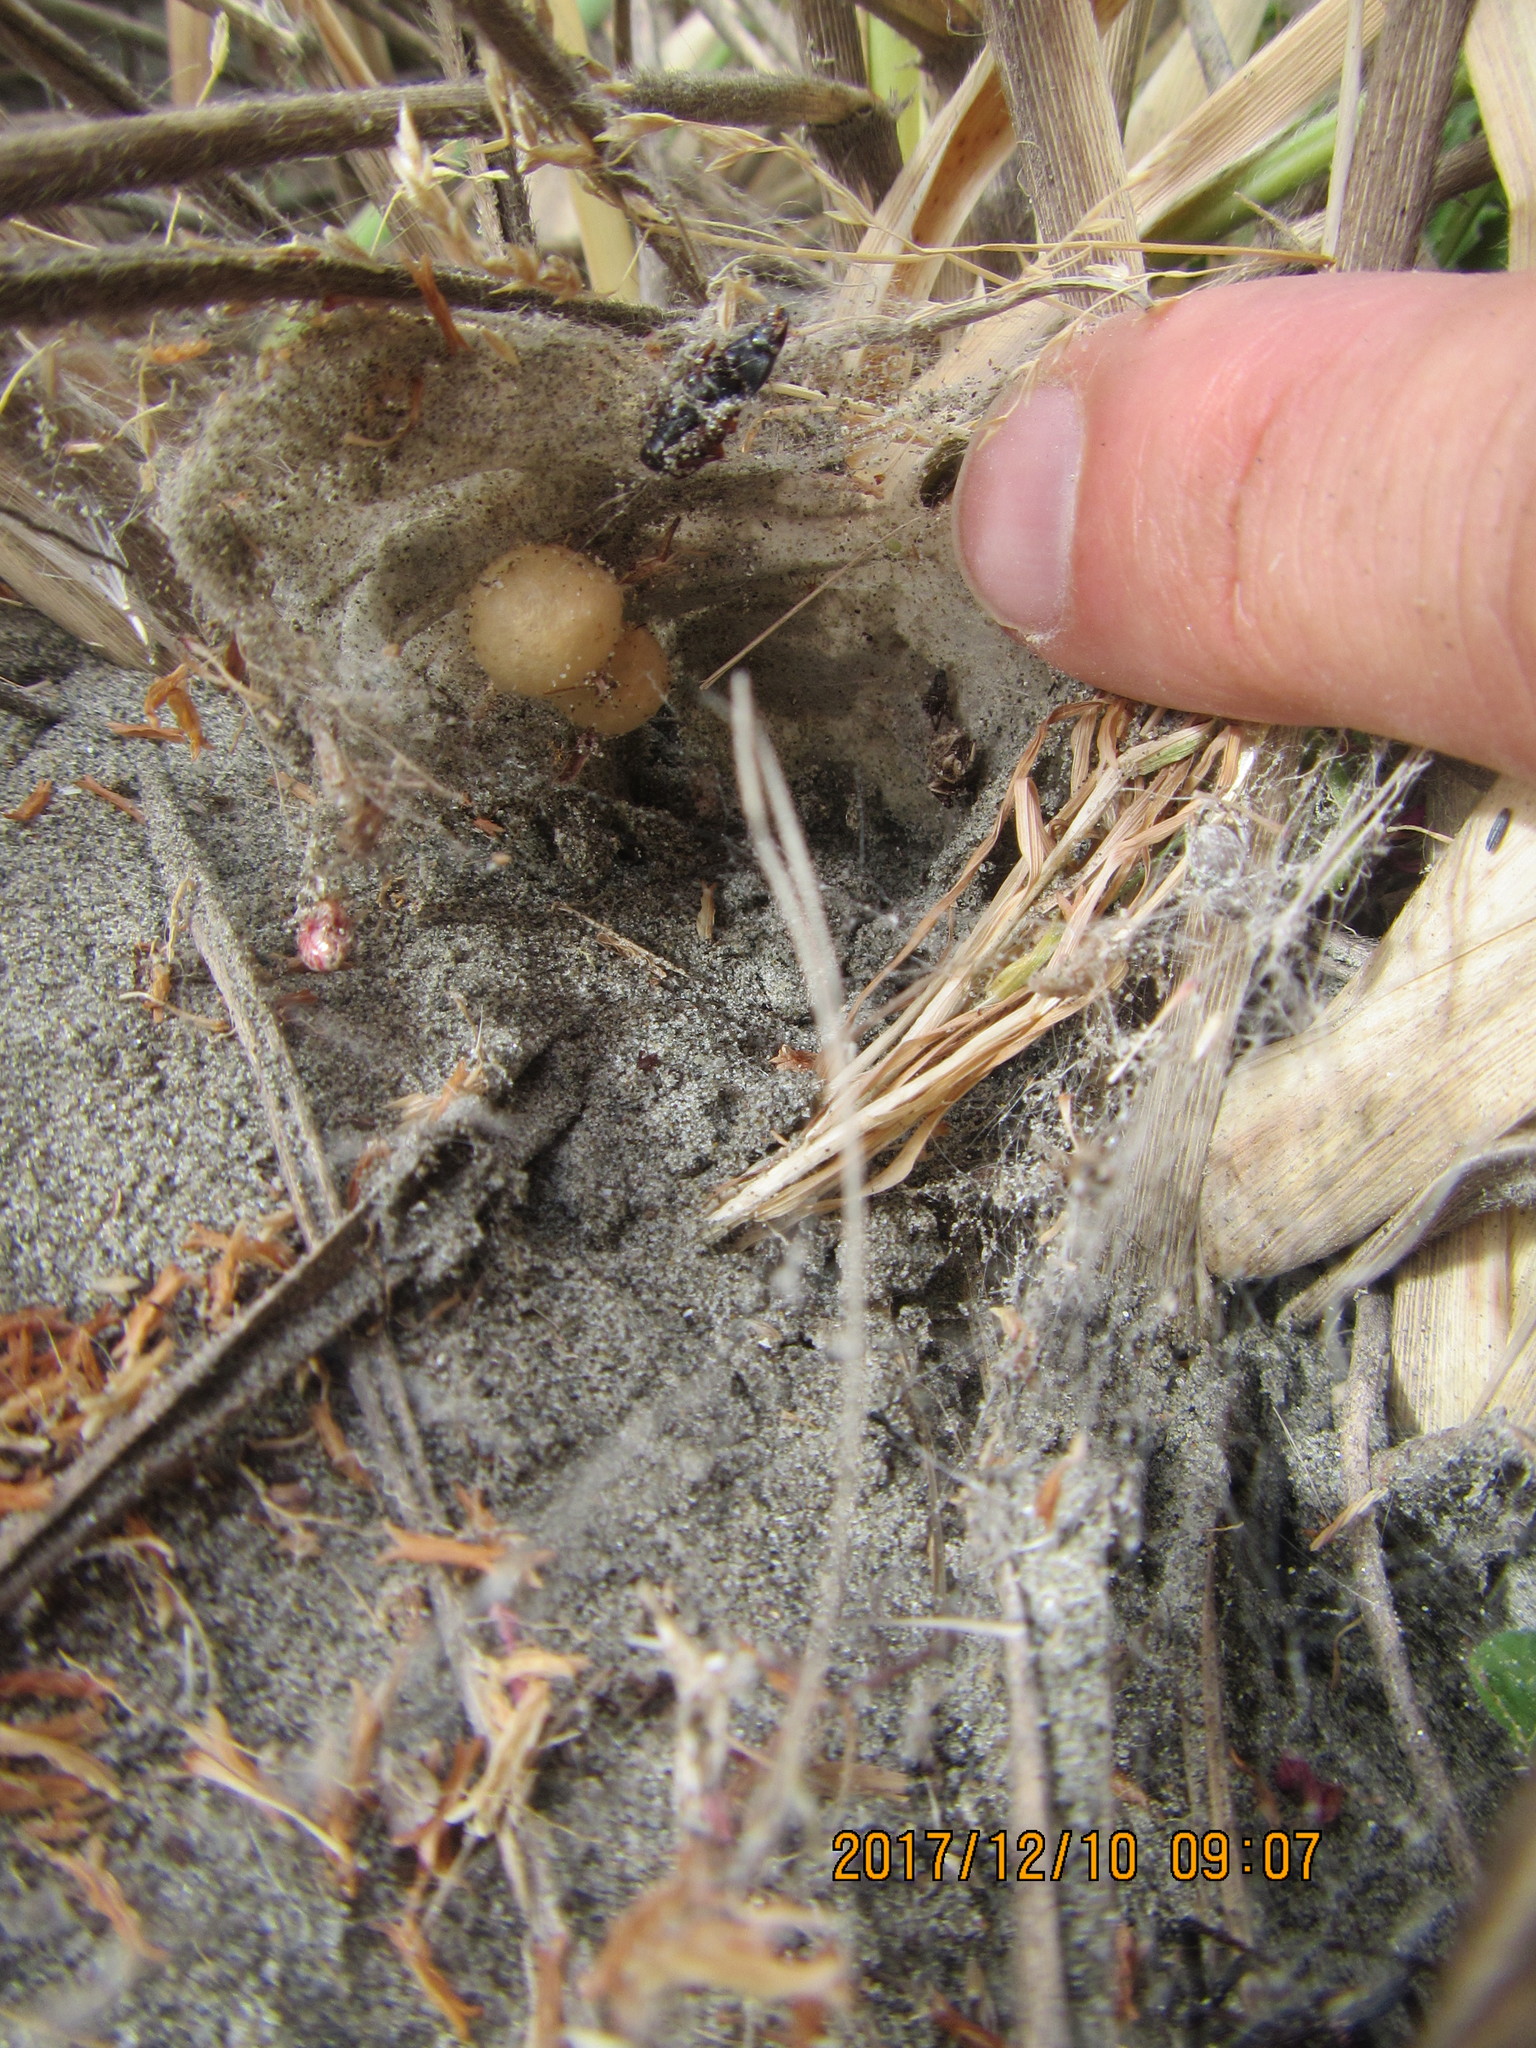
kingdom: Animalia
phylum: Arthropoda
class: Arachnida
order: Araneae
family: Theridiidae
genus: Latrodectus
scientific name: Latrodectus katipo
